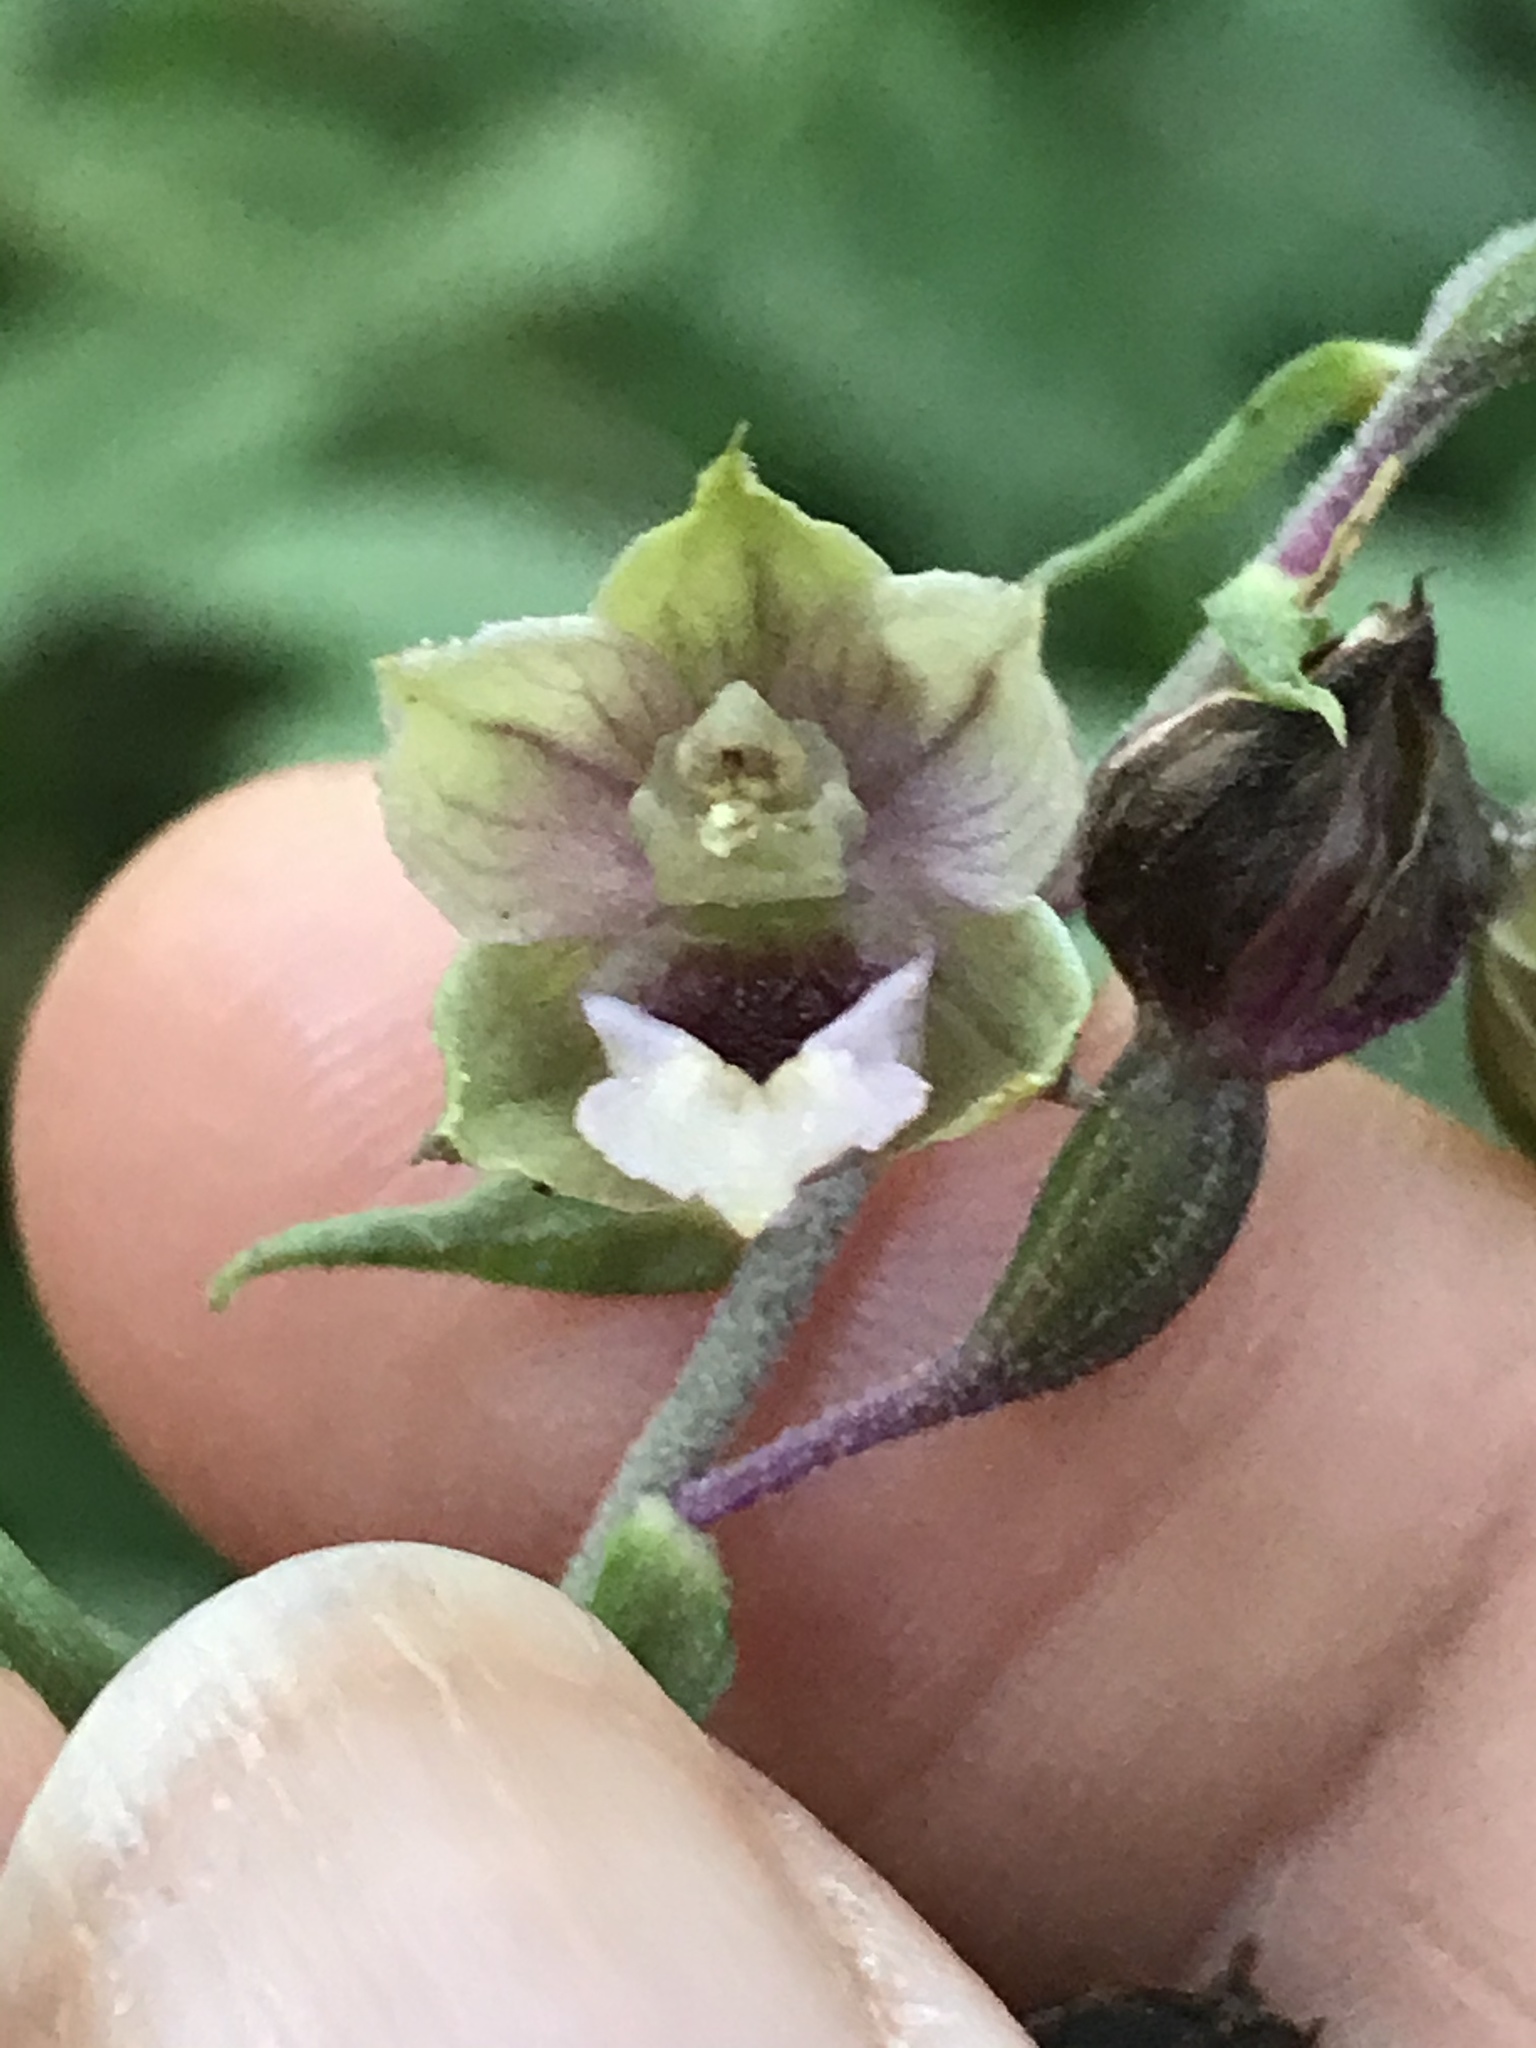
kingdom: Plantae
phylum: Tracheophyta
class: Liliopsida
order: Asparagales
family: Orchidaceae
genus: Epipactis
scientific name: Epipactis helleborine
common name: Broad-leaved helleborine
